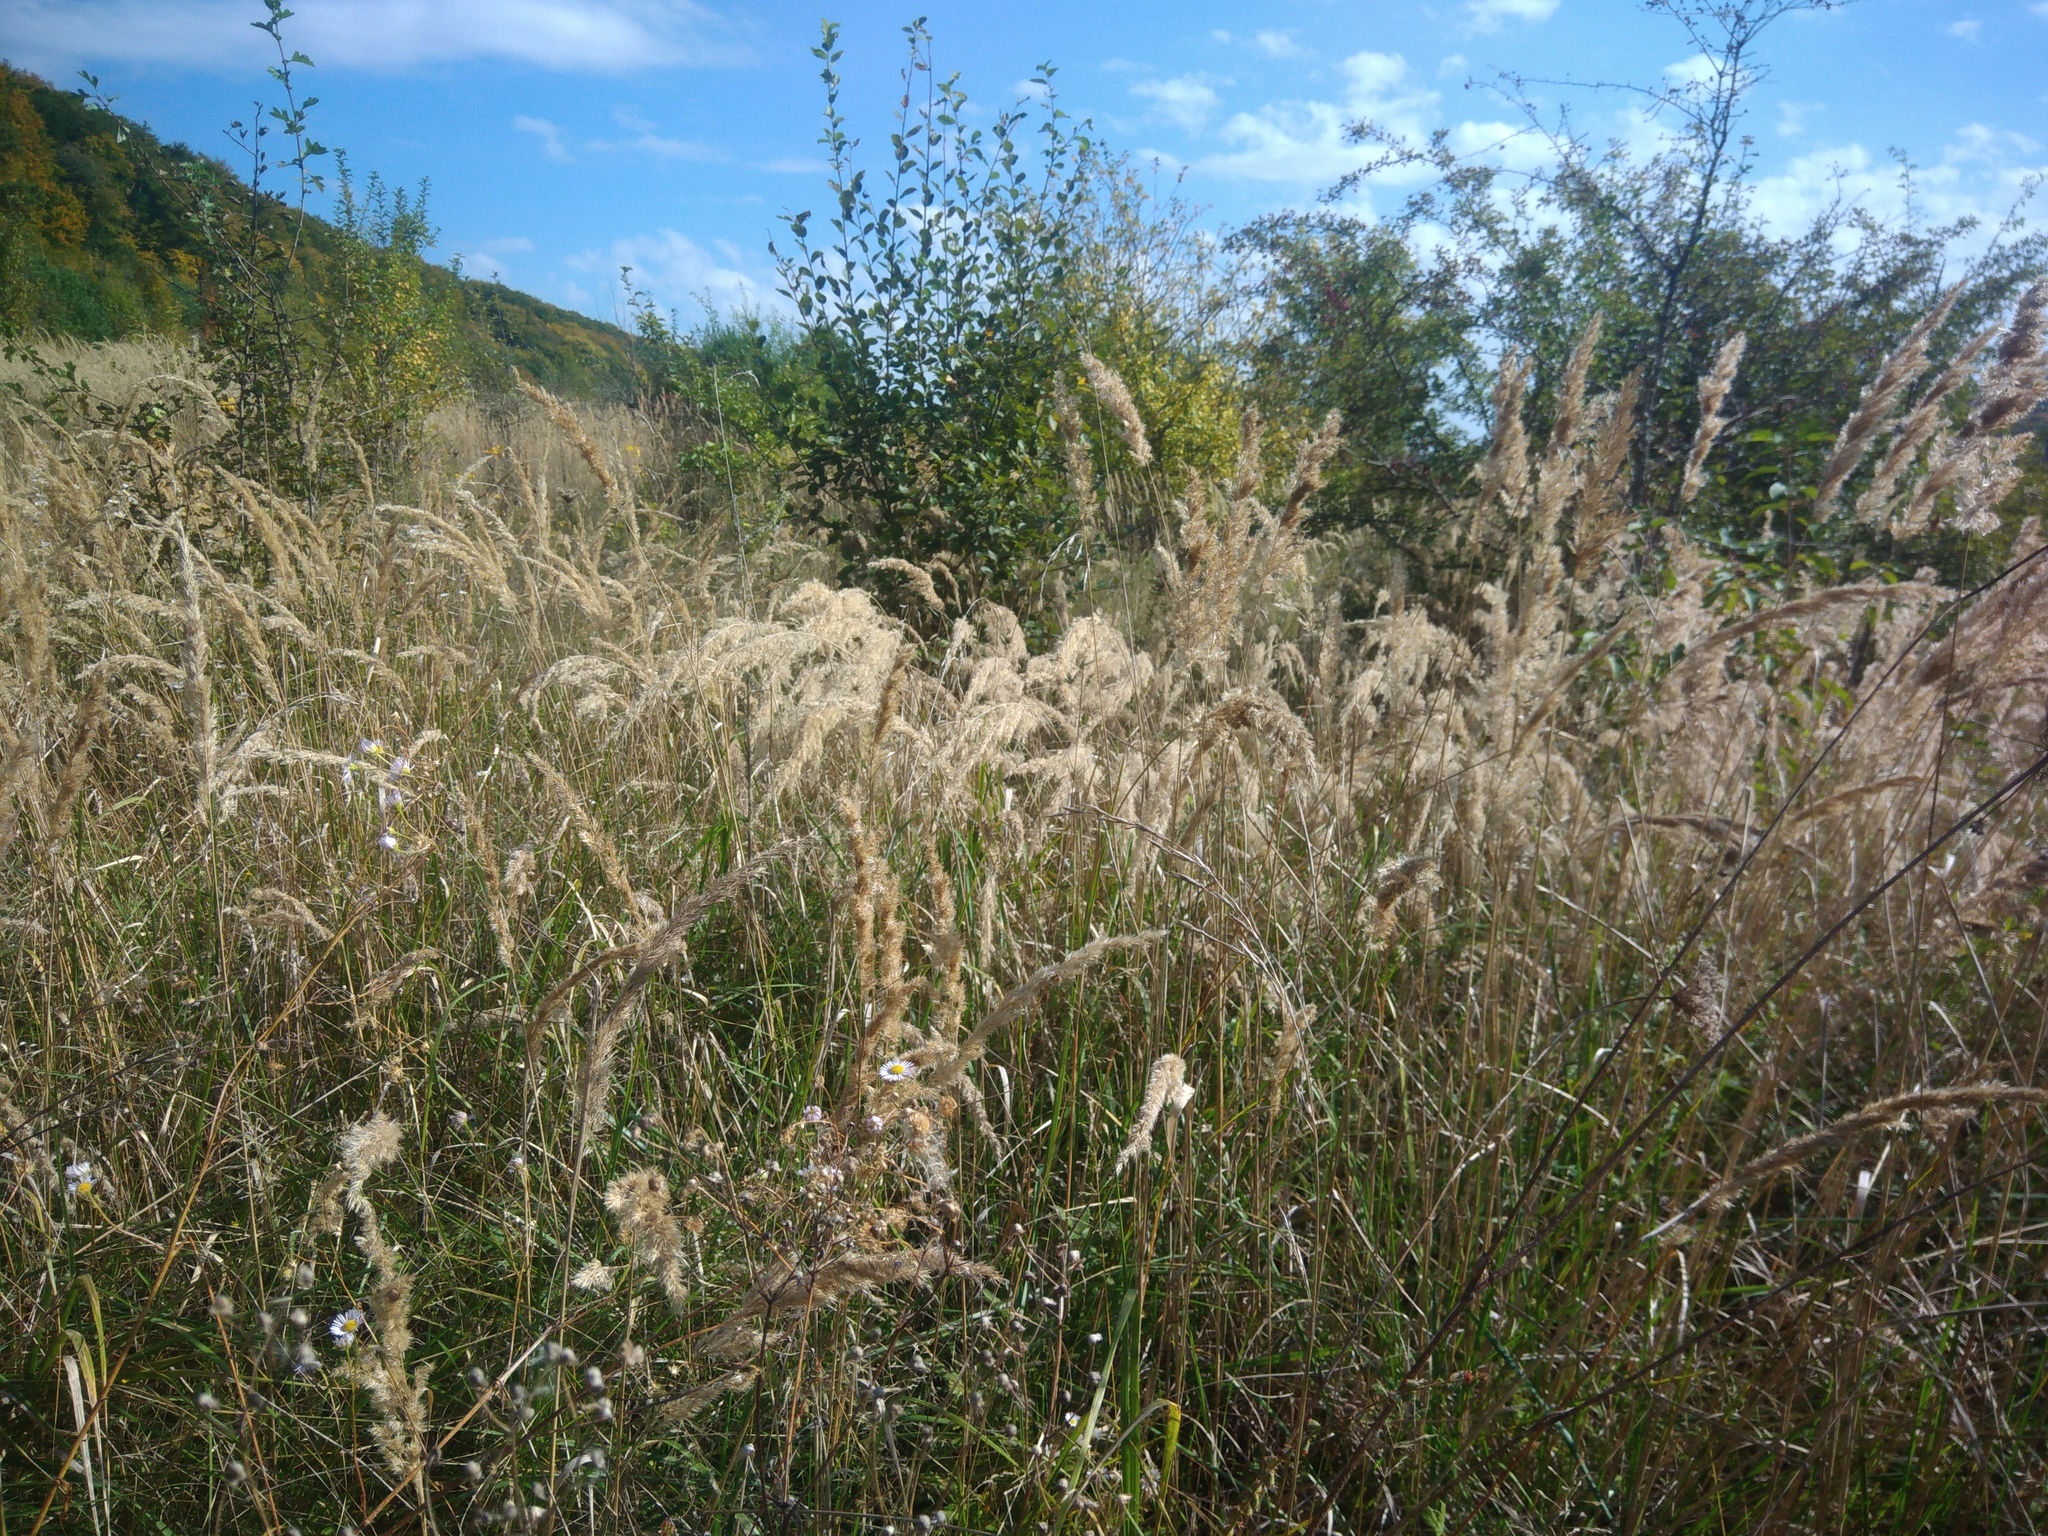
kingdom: Plantae
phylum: Tracheophyta
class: Liliopsida
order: Poales
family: Poaceae
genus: Calamagrostis
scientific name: Calamagrostis epigejos
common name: Wood small-reed
